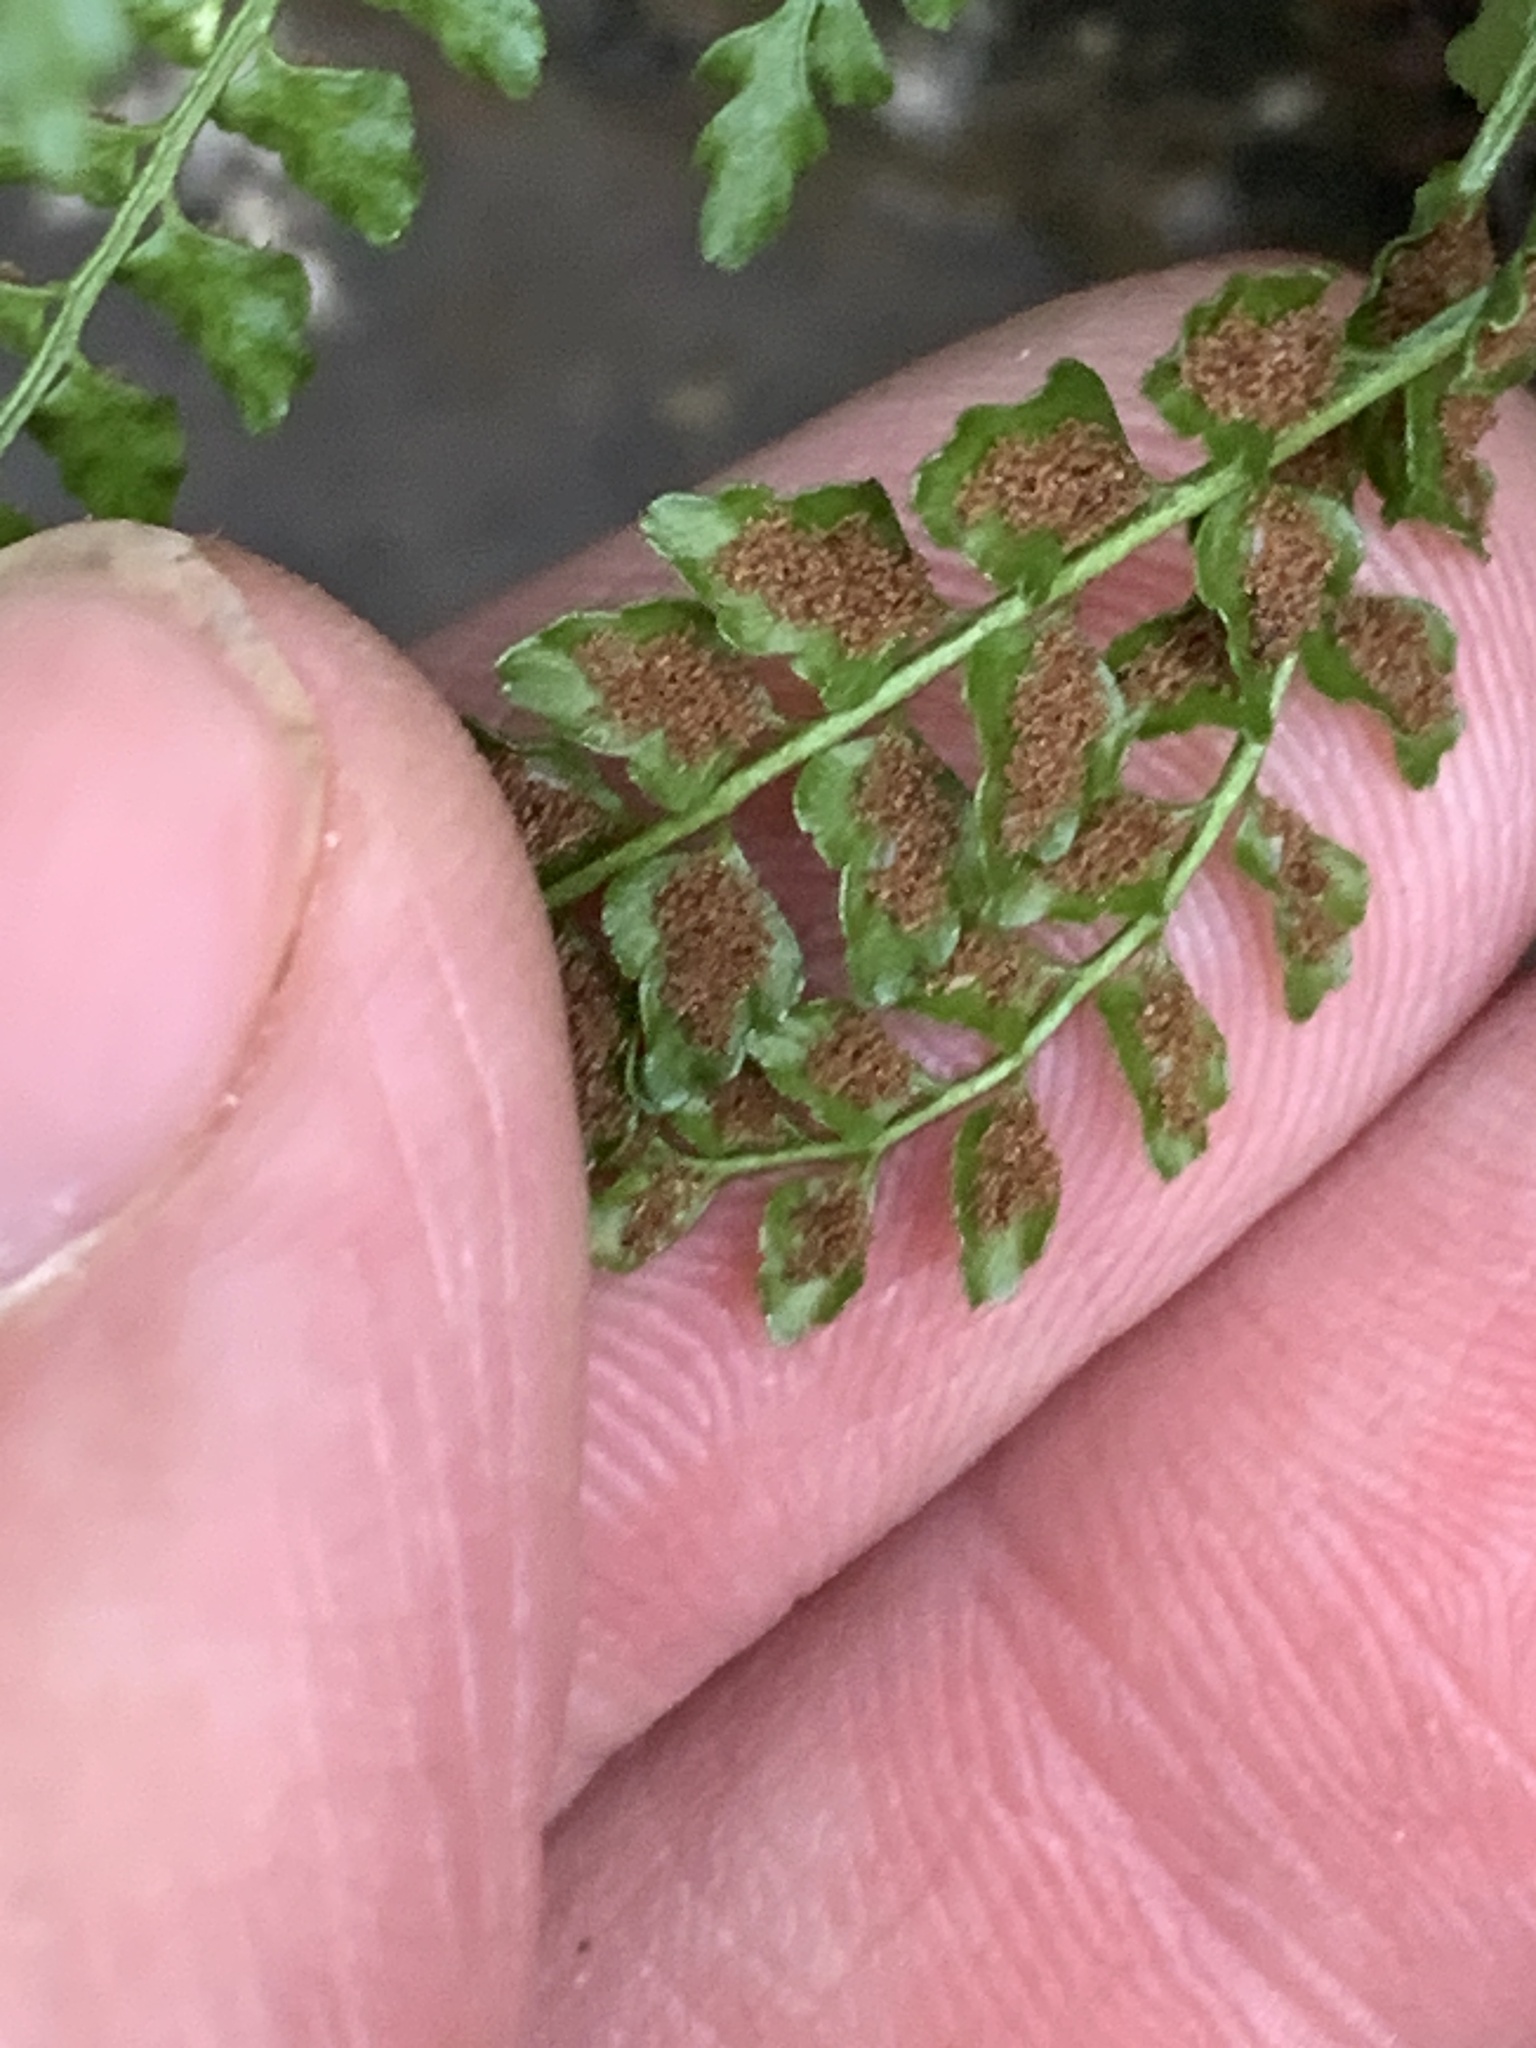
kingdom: Plantae
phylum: Tracheophyta
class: Polypodiopsida
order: Polypodiales
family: Aspleniaceae
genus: Asplenium
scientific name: Asplenium viride
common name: Green spleenwort
